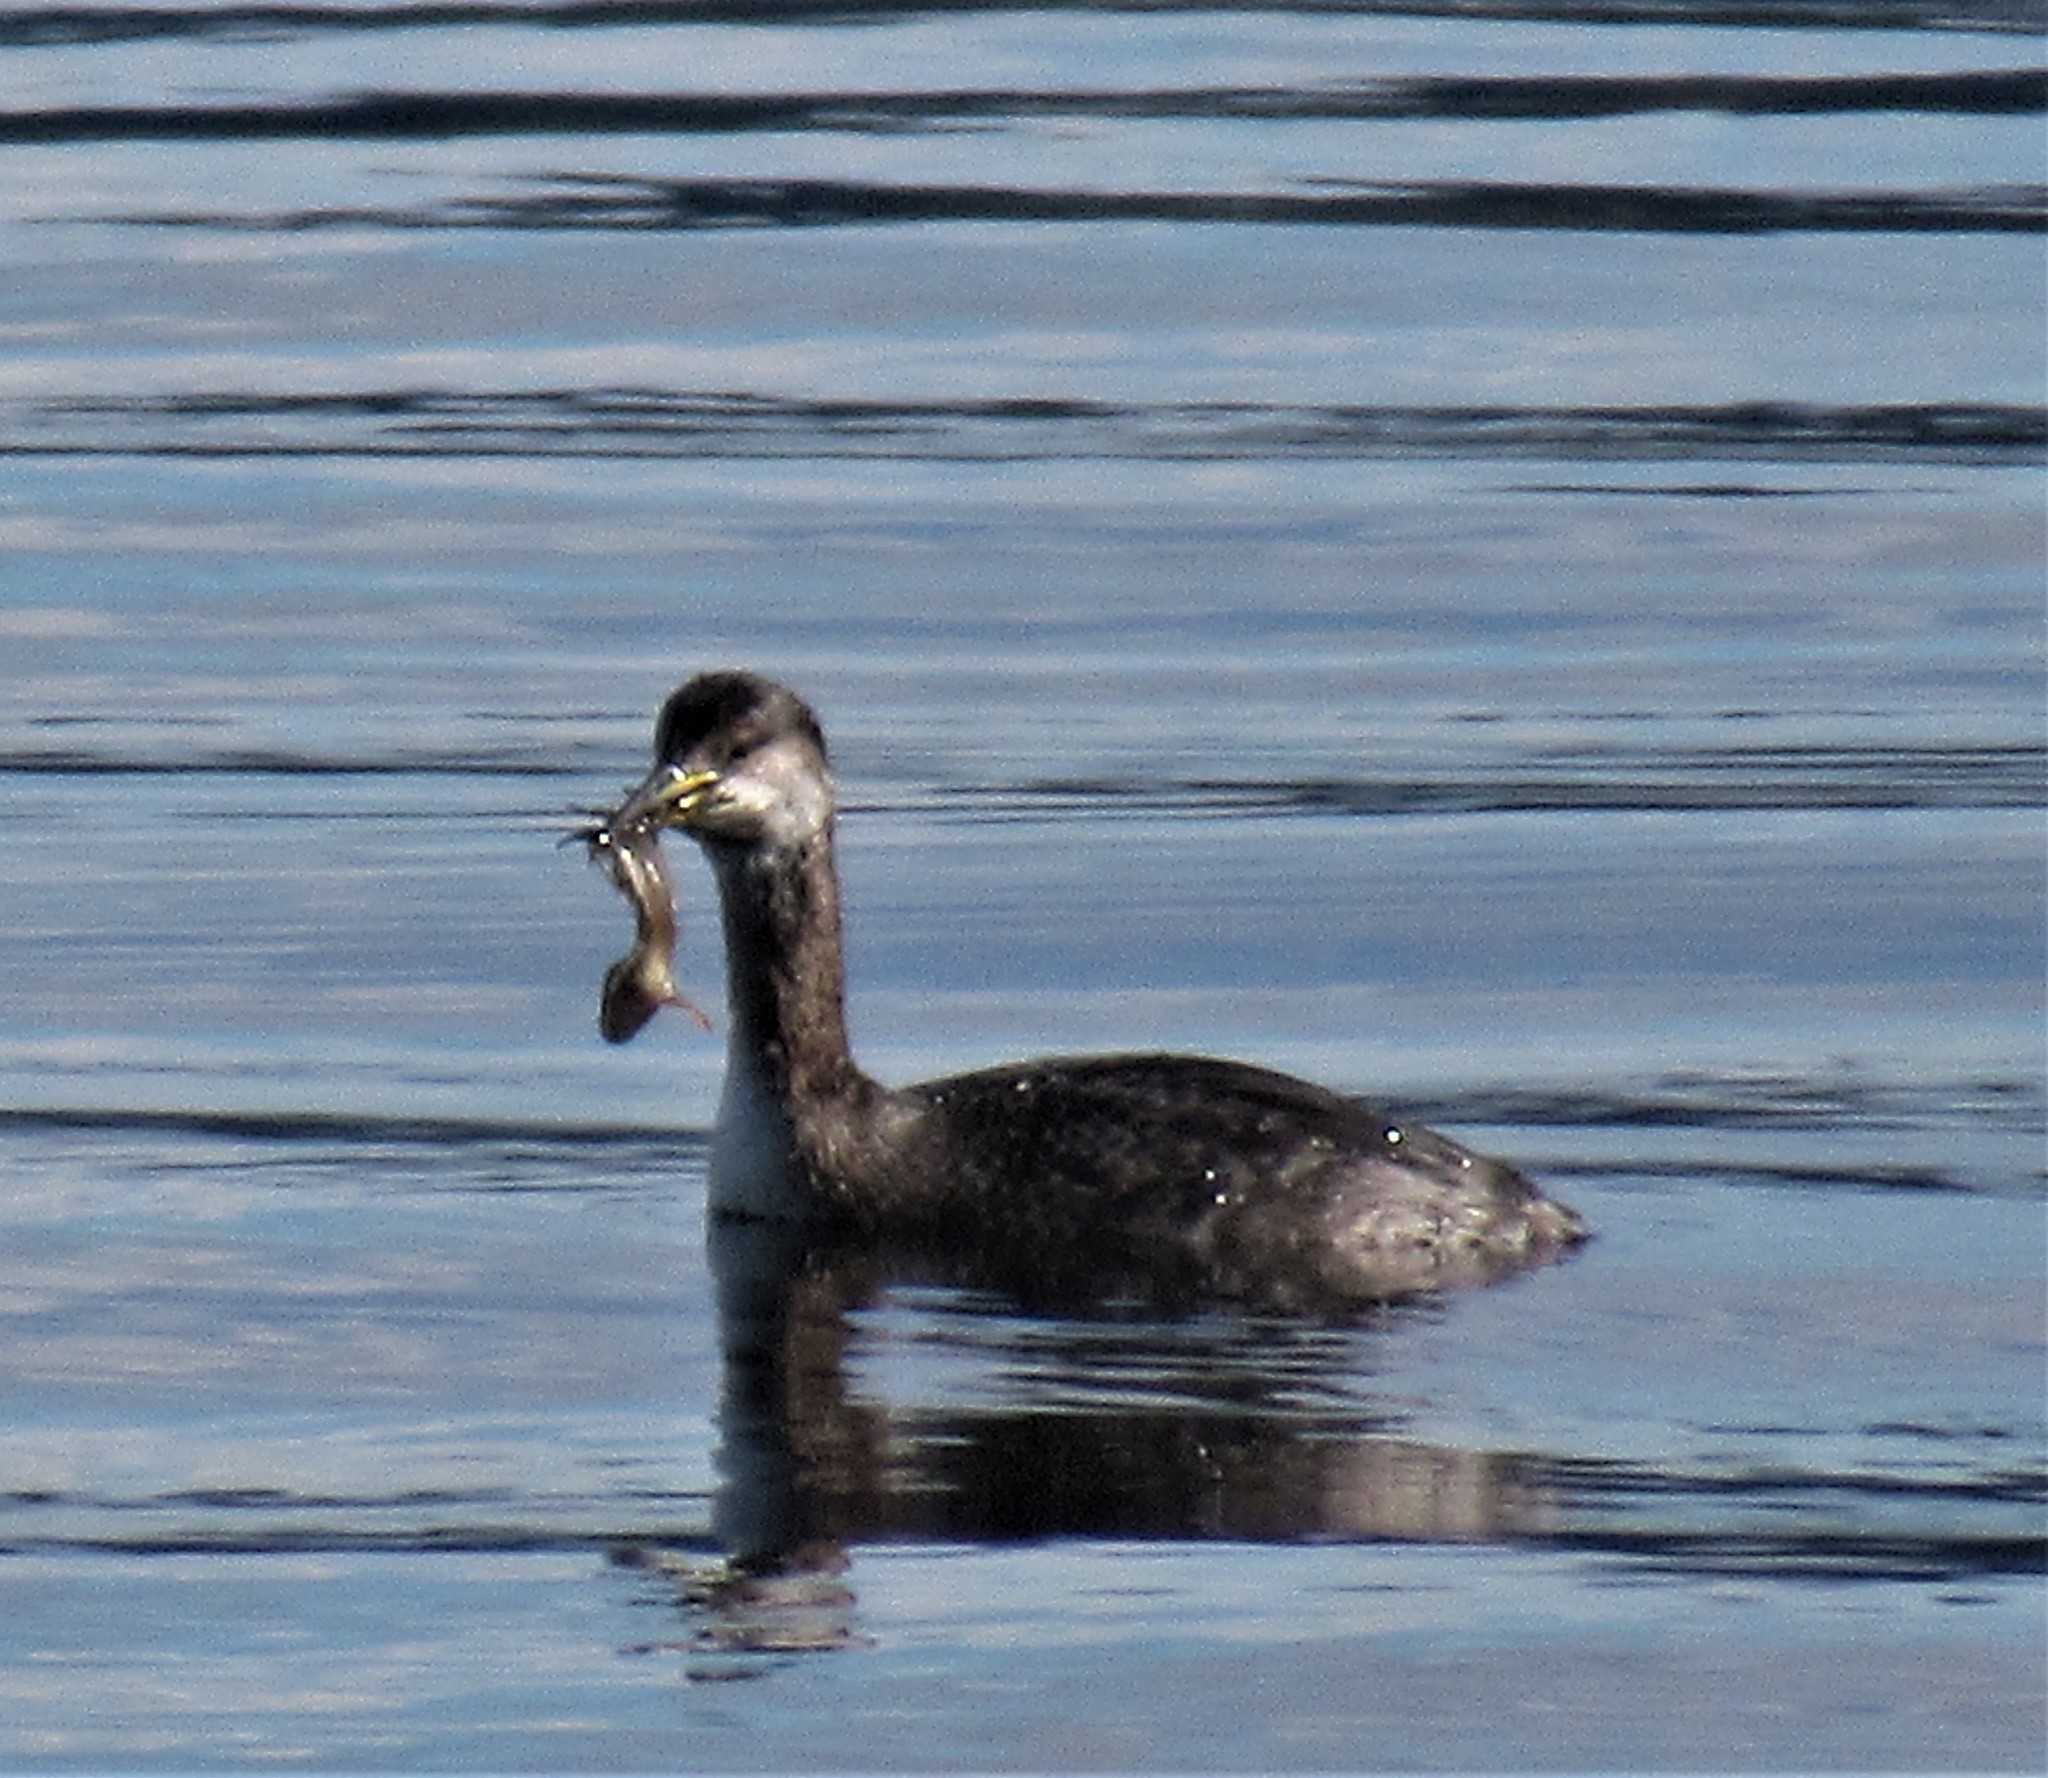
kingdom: Animalia
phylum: Chordata
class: Aves
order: Podicipediformes
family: Podicipedidae
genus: Podiceps
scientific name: Podiceps grisegena
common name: Red-necked grebe
